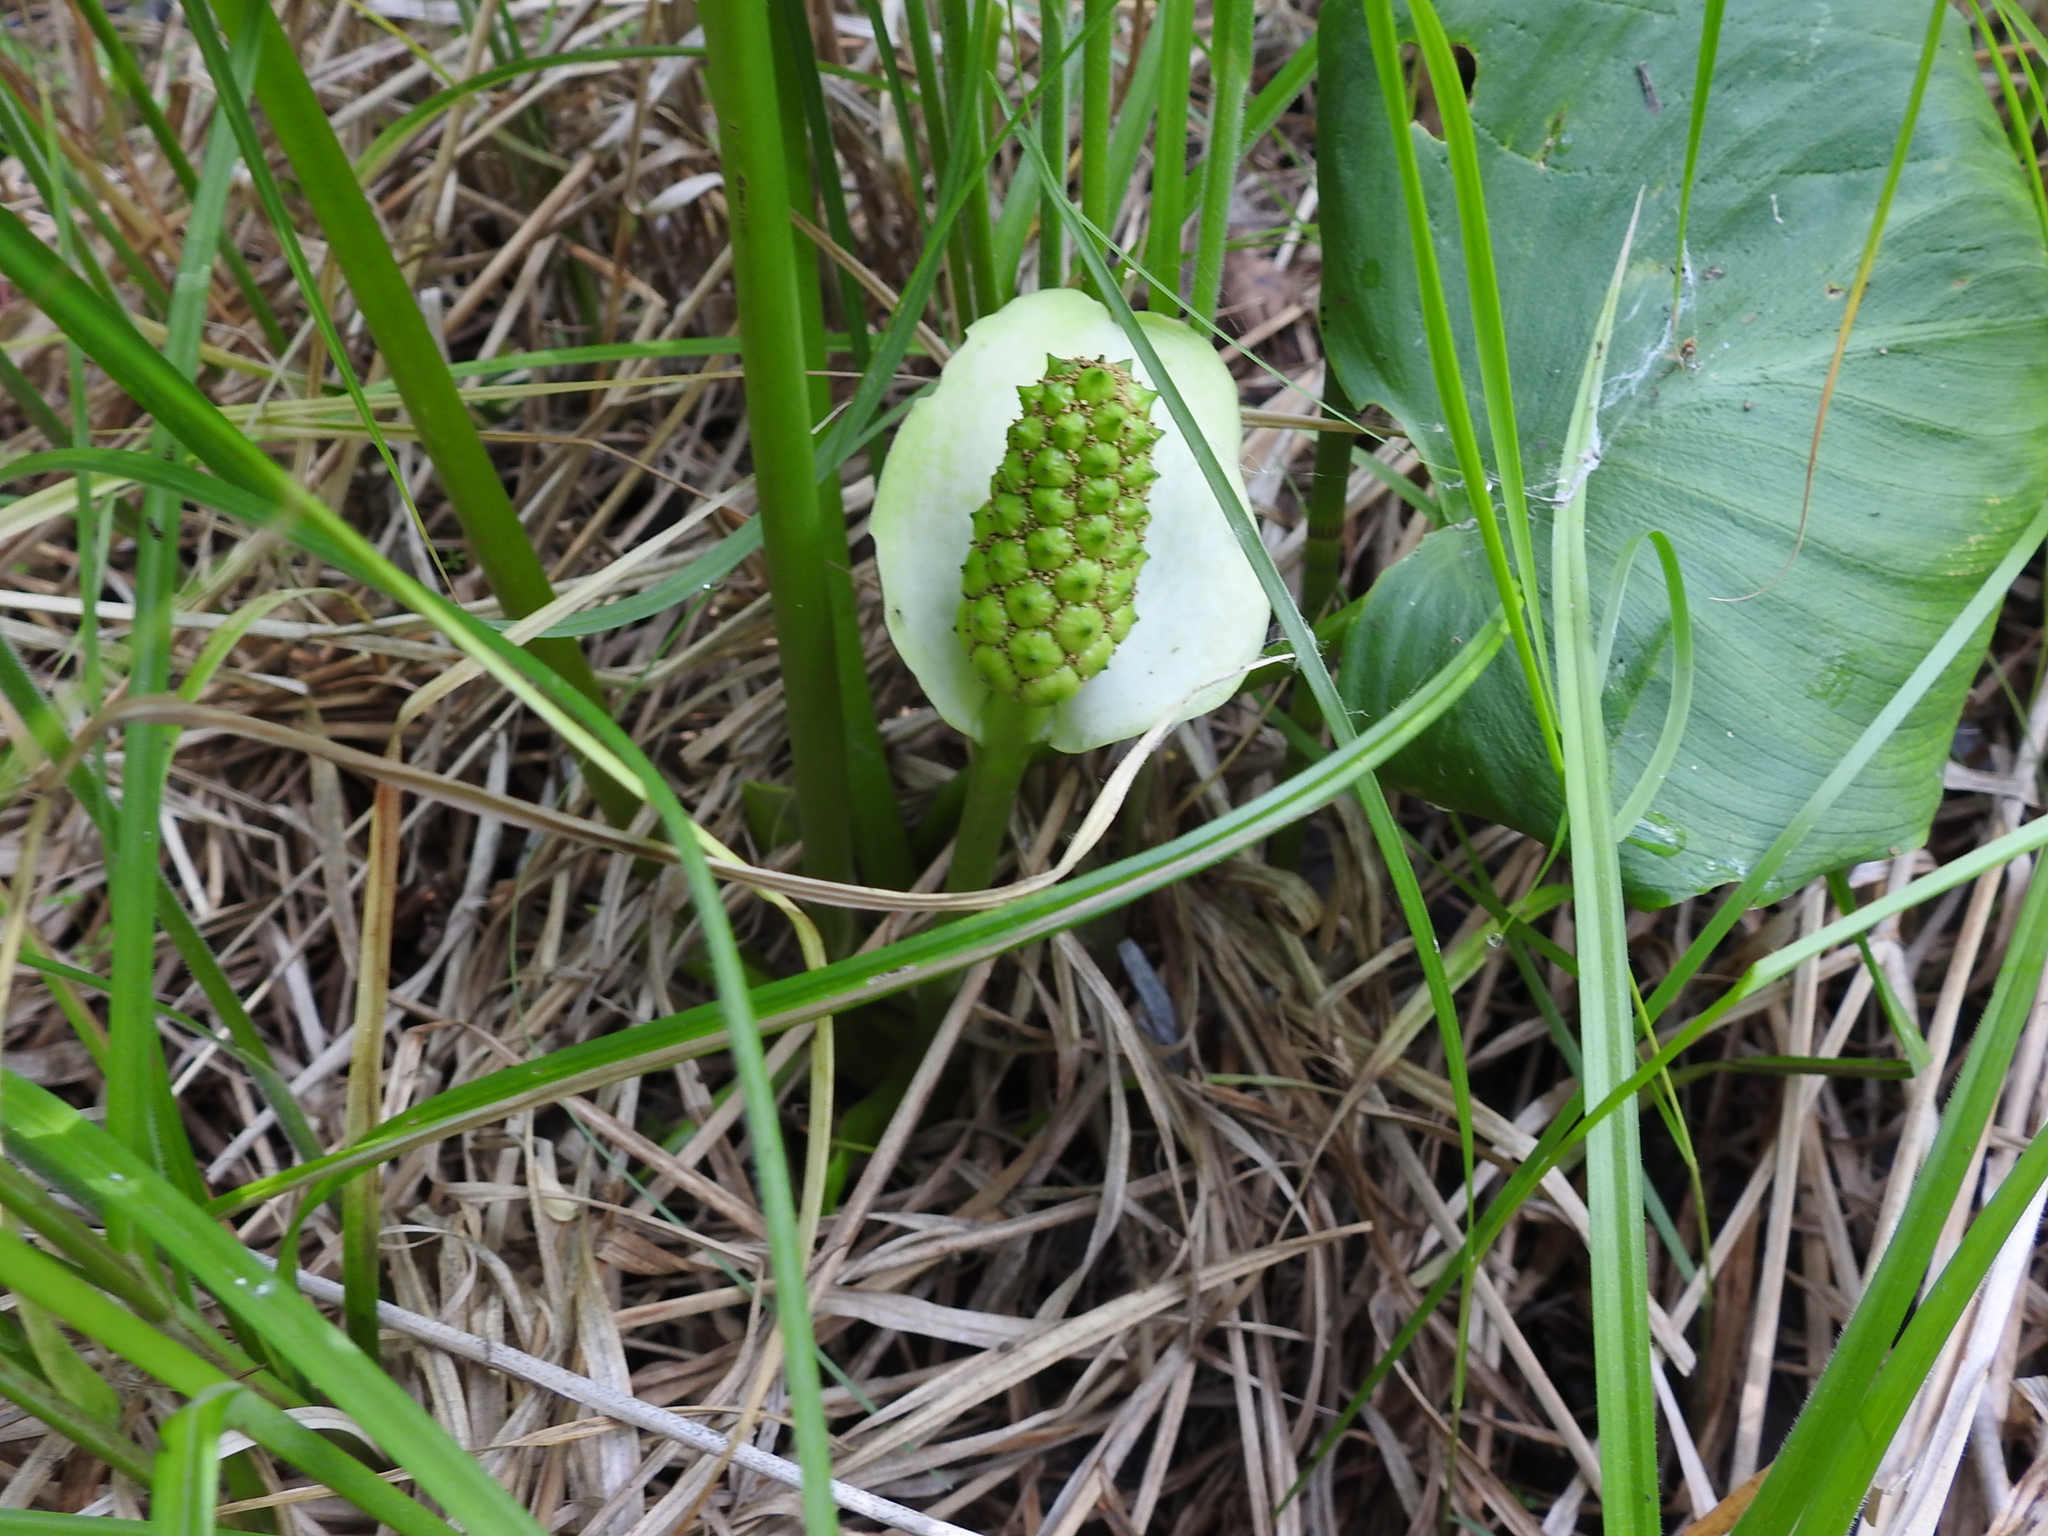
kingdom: Plantae
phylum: Tracheophyta
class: Liliopsida
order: Alismatales
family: Araceae
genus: Calla
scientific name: Calla palustris
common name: Bog arum
